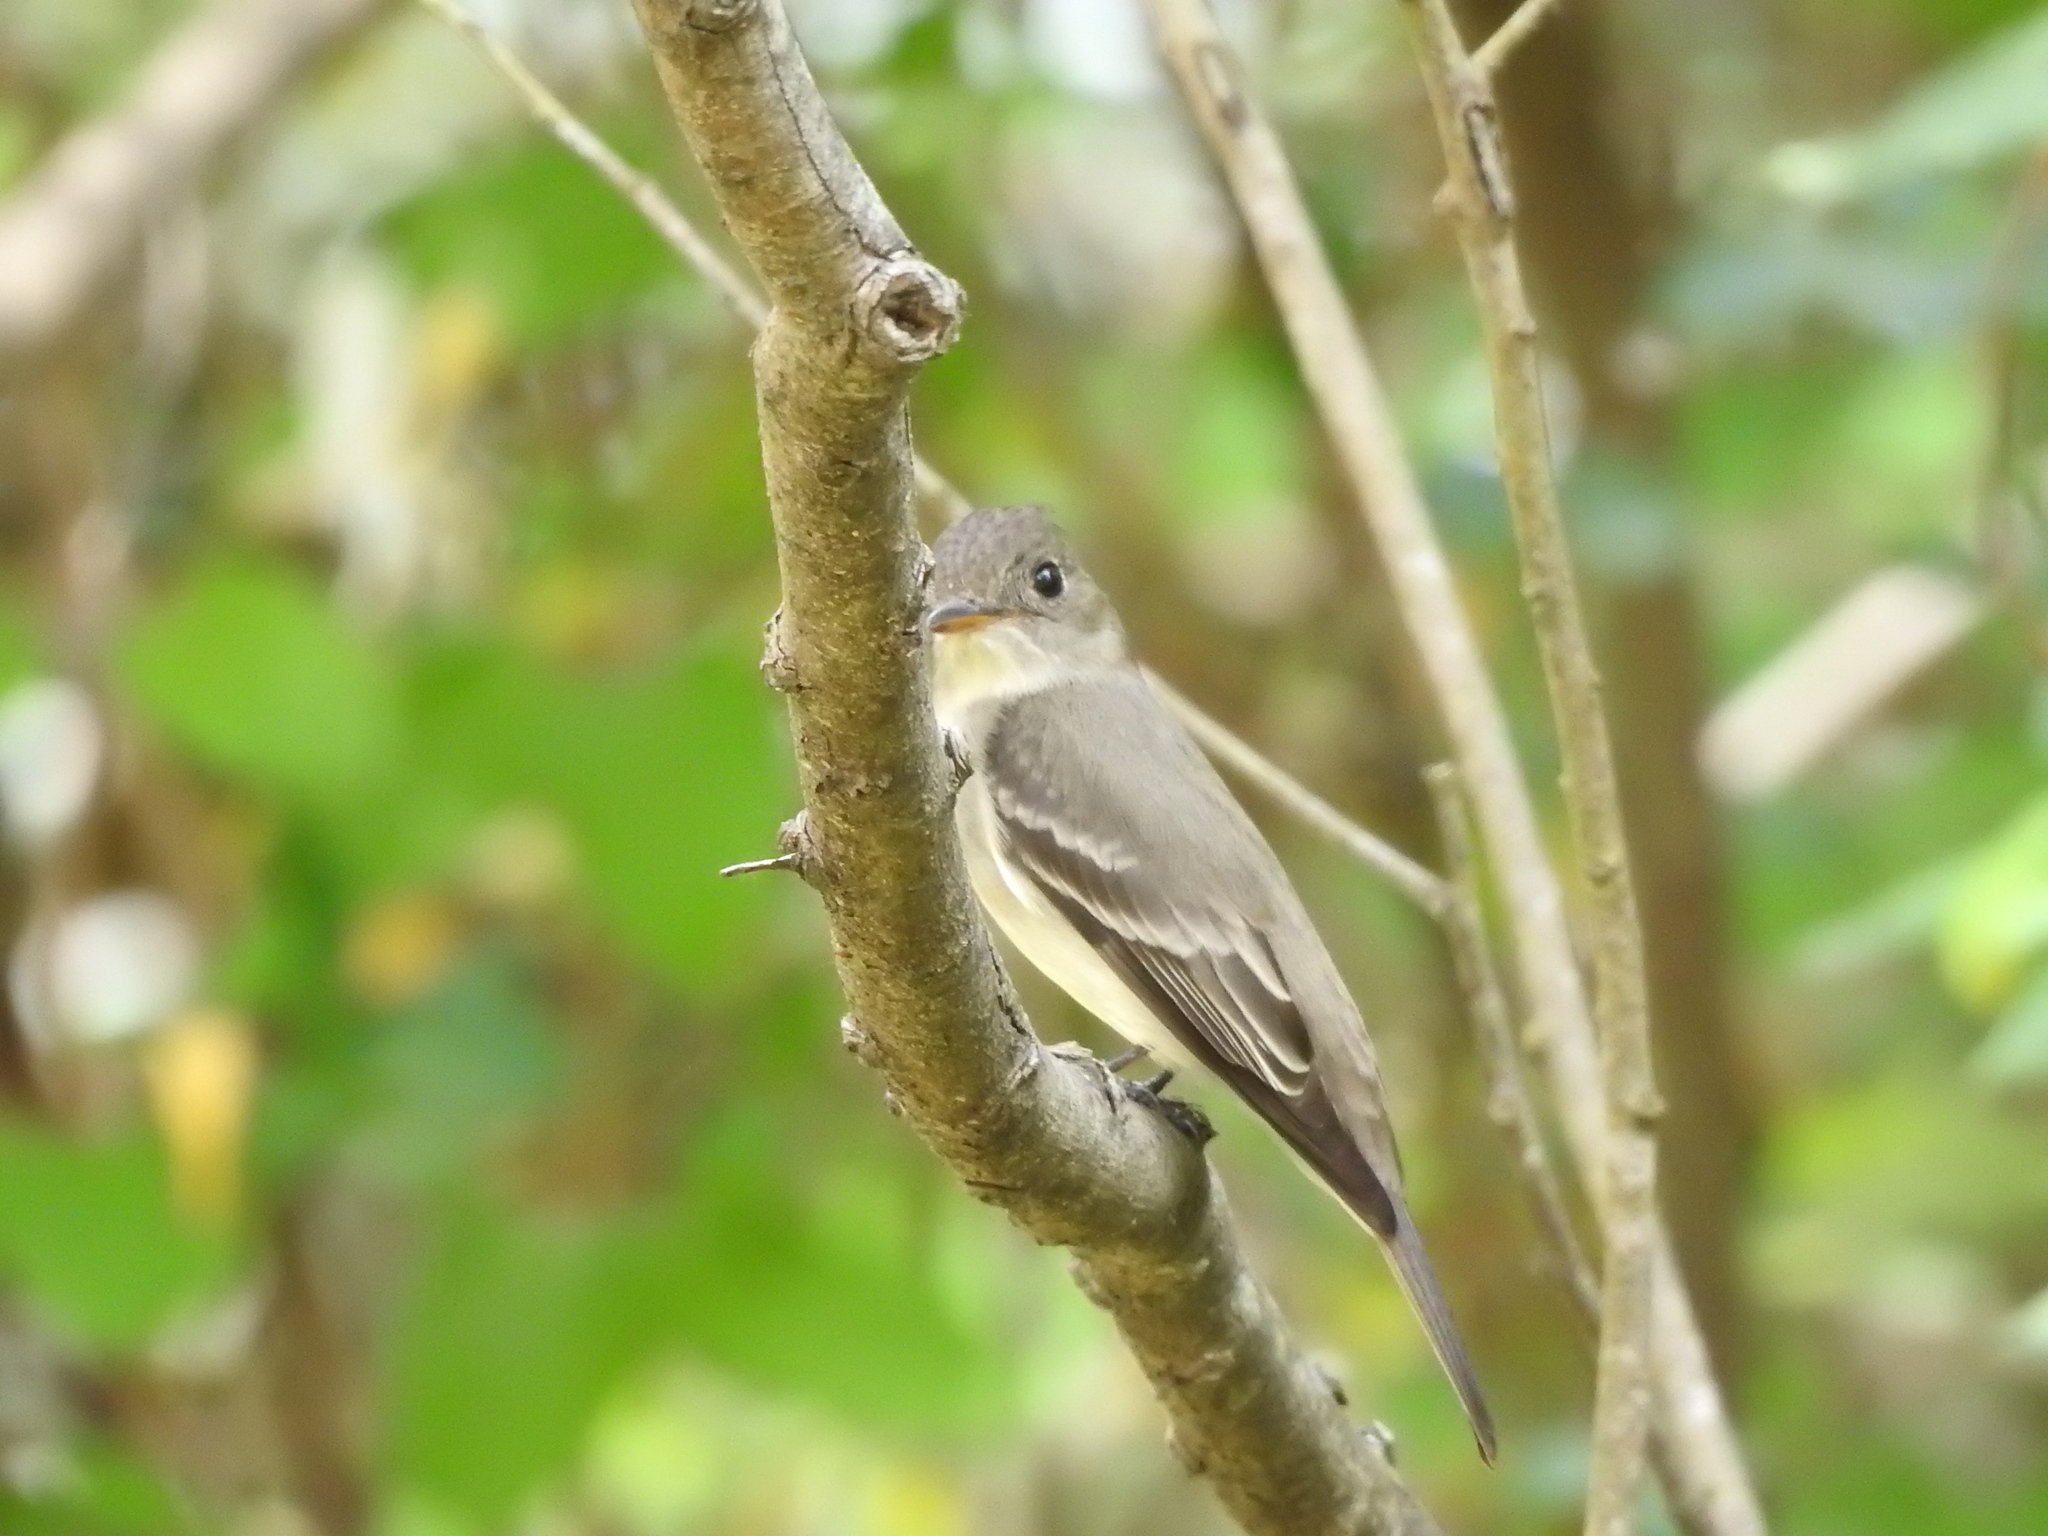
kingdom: Animalia
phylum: Chordata
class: Aves
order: Passeriformes
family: Tyrannidae
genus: Contopus
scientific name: Contopus virens
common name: Eastern wood-pewee
